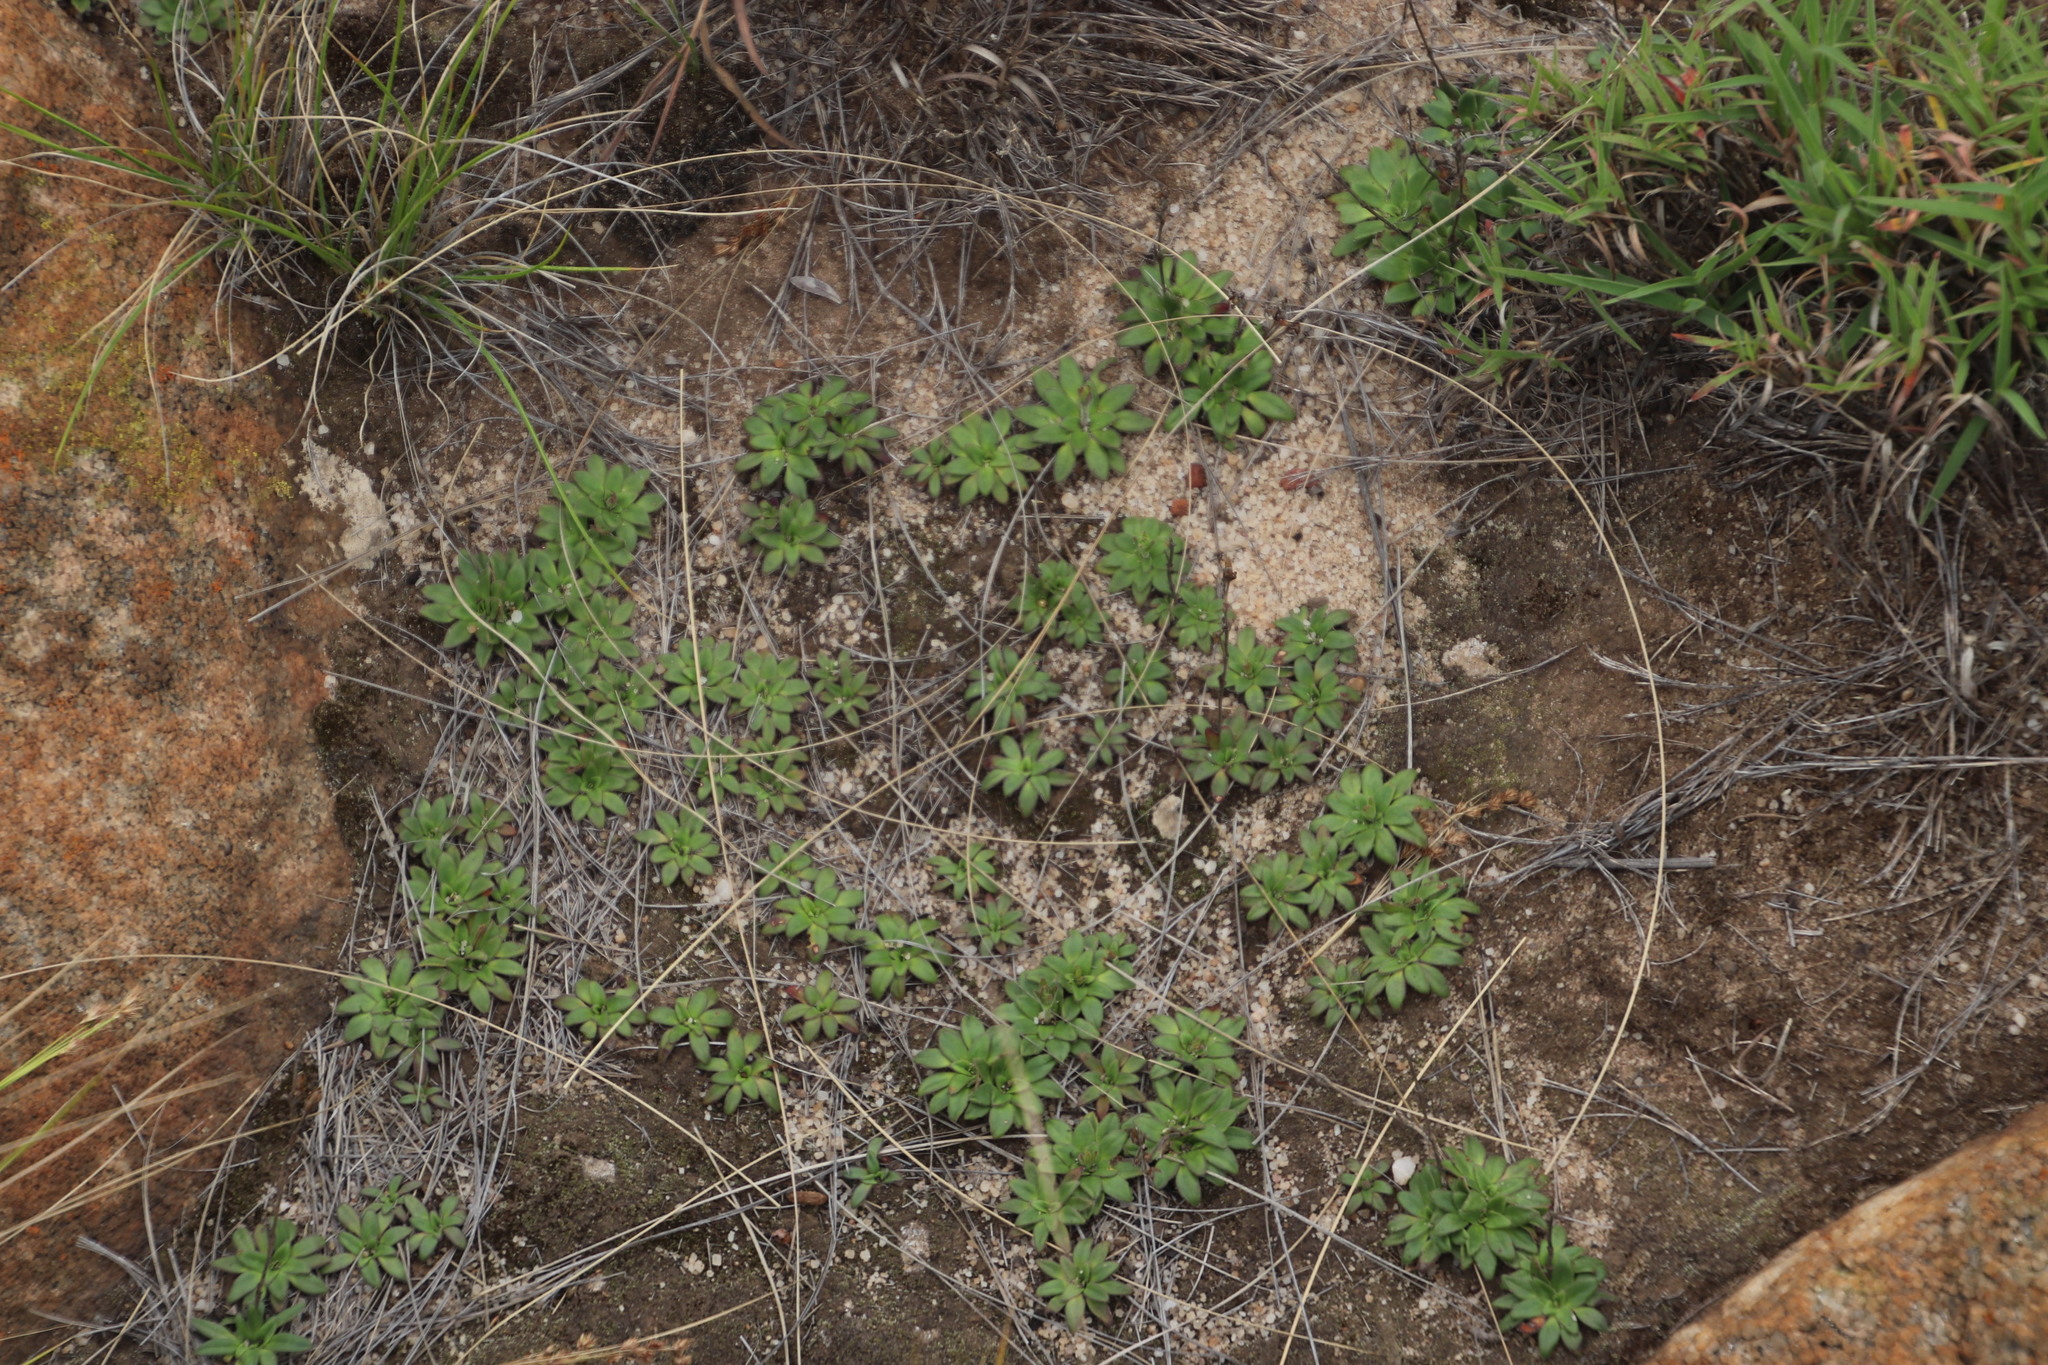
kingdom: Plantae
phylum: Tracheophyta
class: Magnoliopsida
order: Lamiales
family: Linderniaceae
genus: Craterostigma
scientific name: Craterostigma wilmsii
